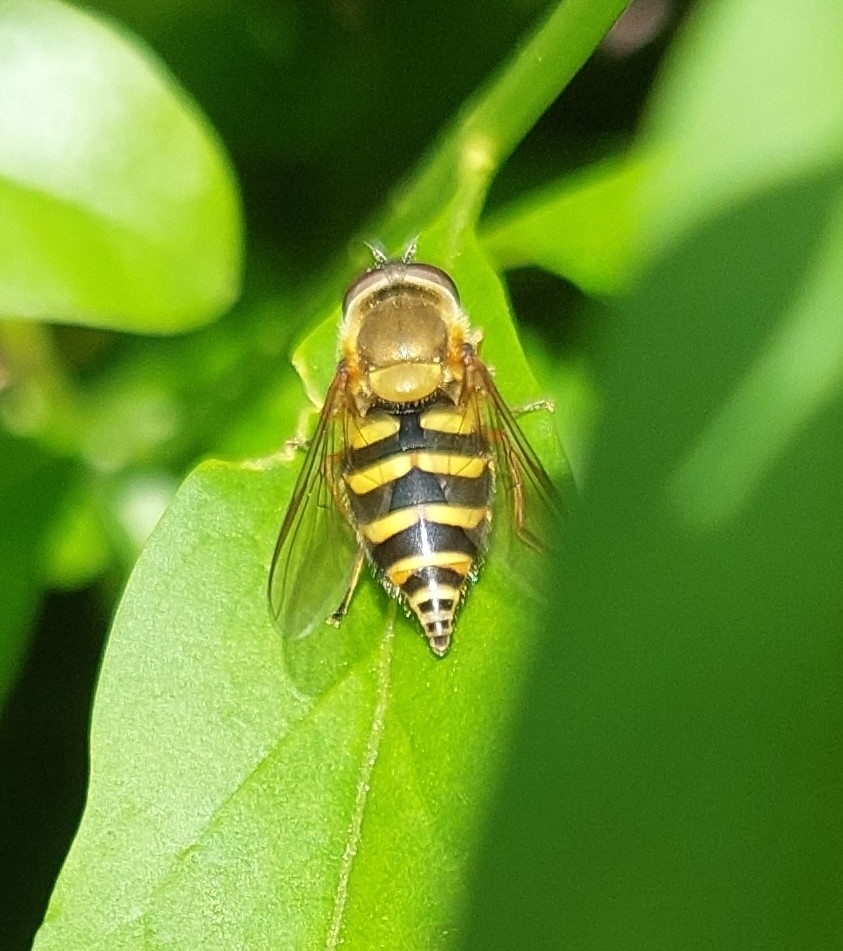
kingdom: Animalia
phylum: Arthropoda
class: Insecta
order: Diptera
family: Syrphidae
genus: Syrphus
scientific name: Syrphus
